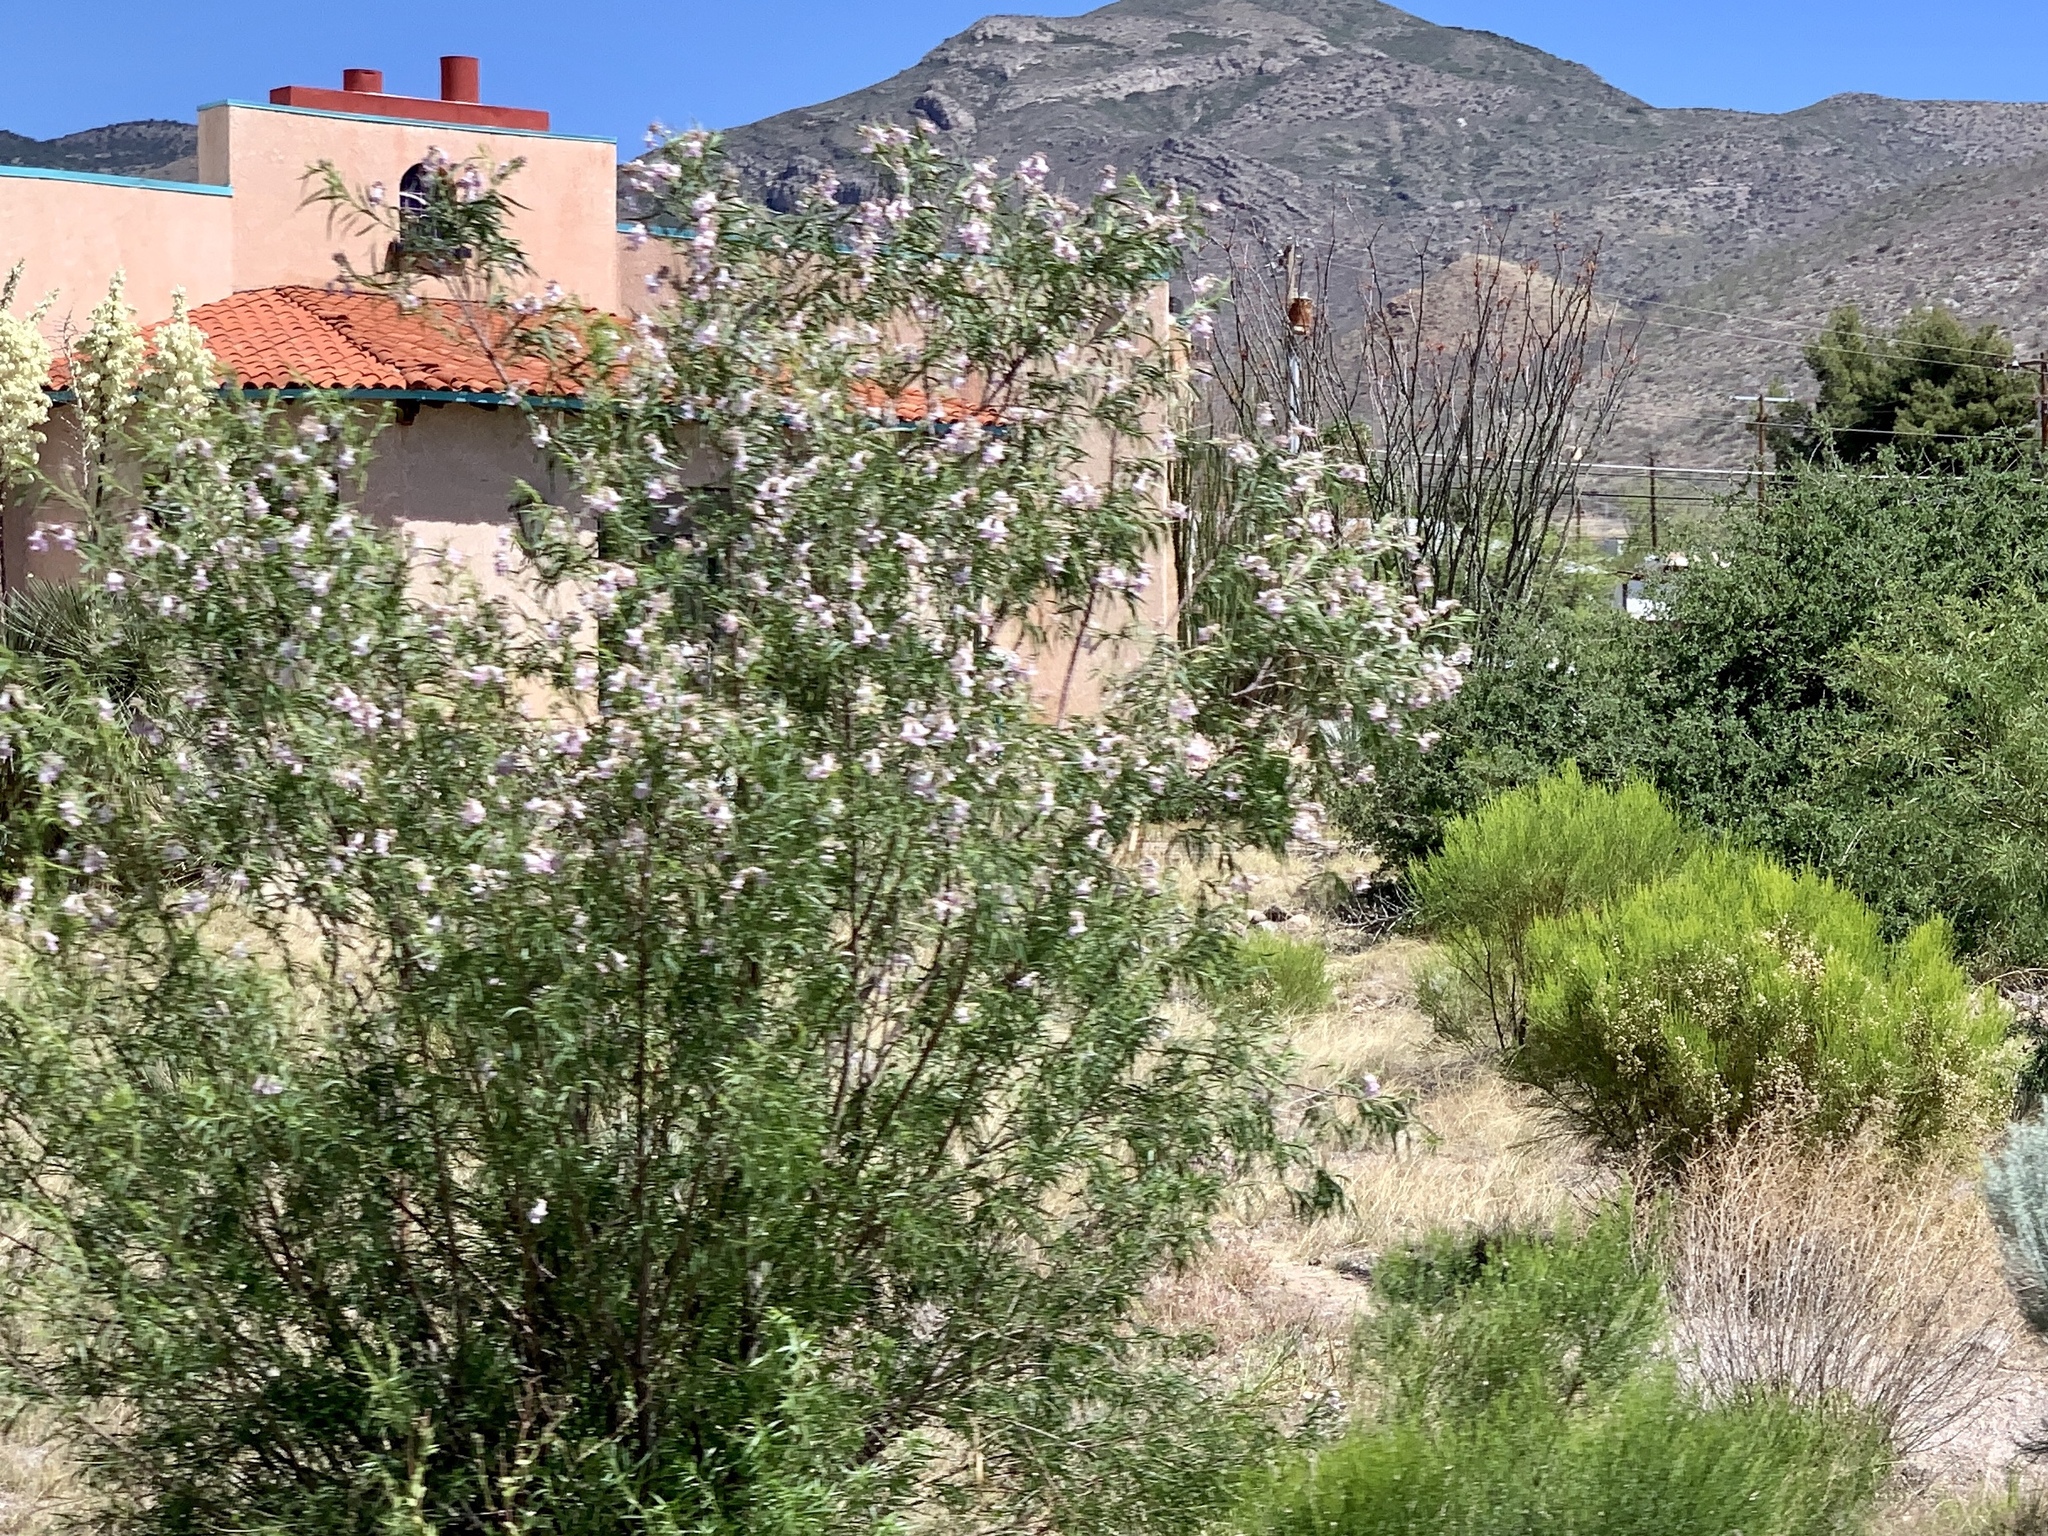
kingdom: Plantae
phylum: Tracheophyta
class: Magnoliopsida
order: Lamiales
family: Bignoniaceae
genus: Chilopsis
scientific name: Chilopsis linearis
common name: Desert-willow
